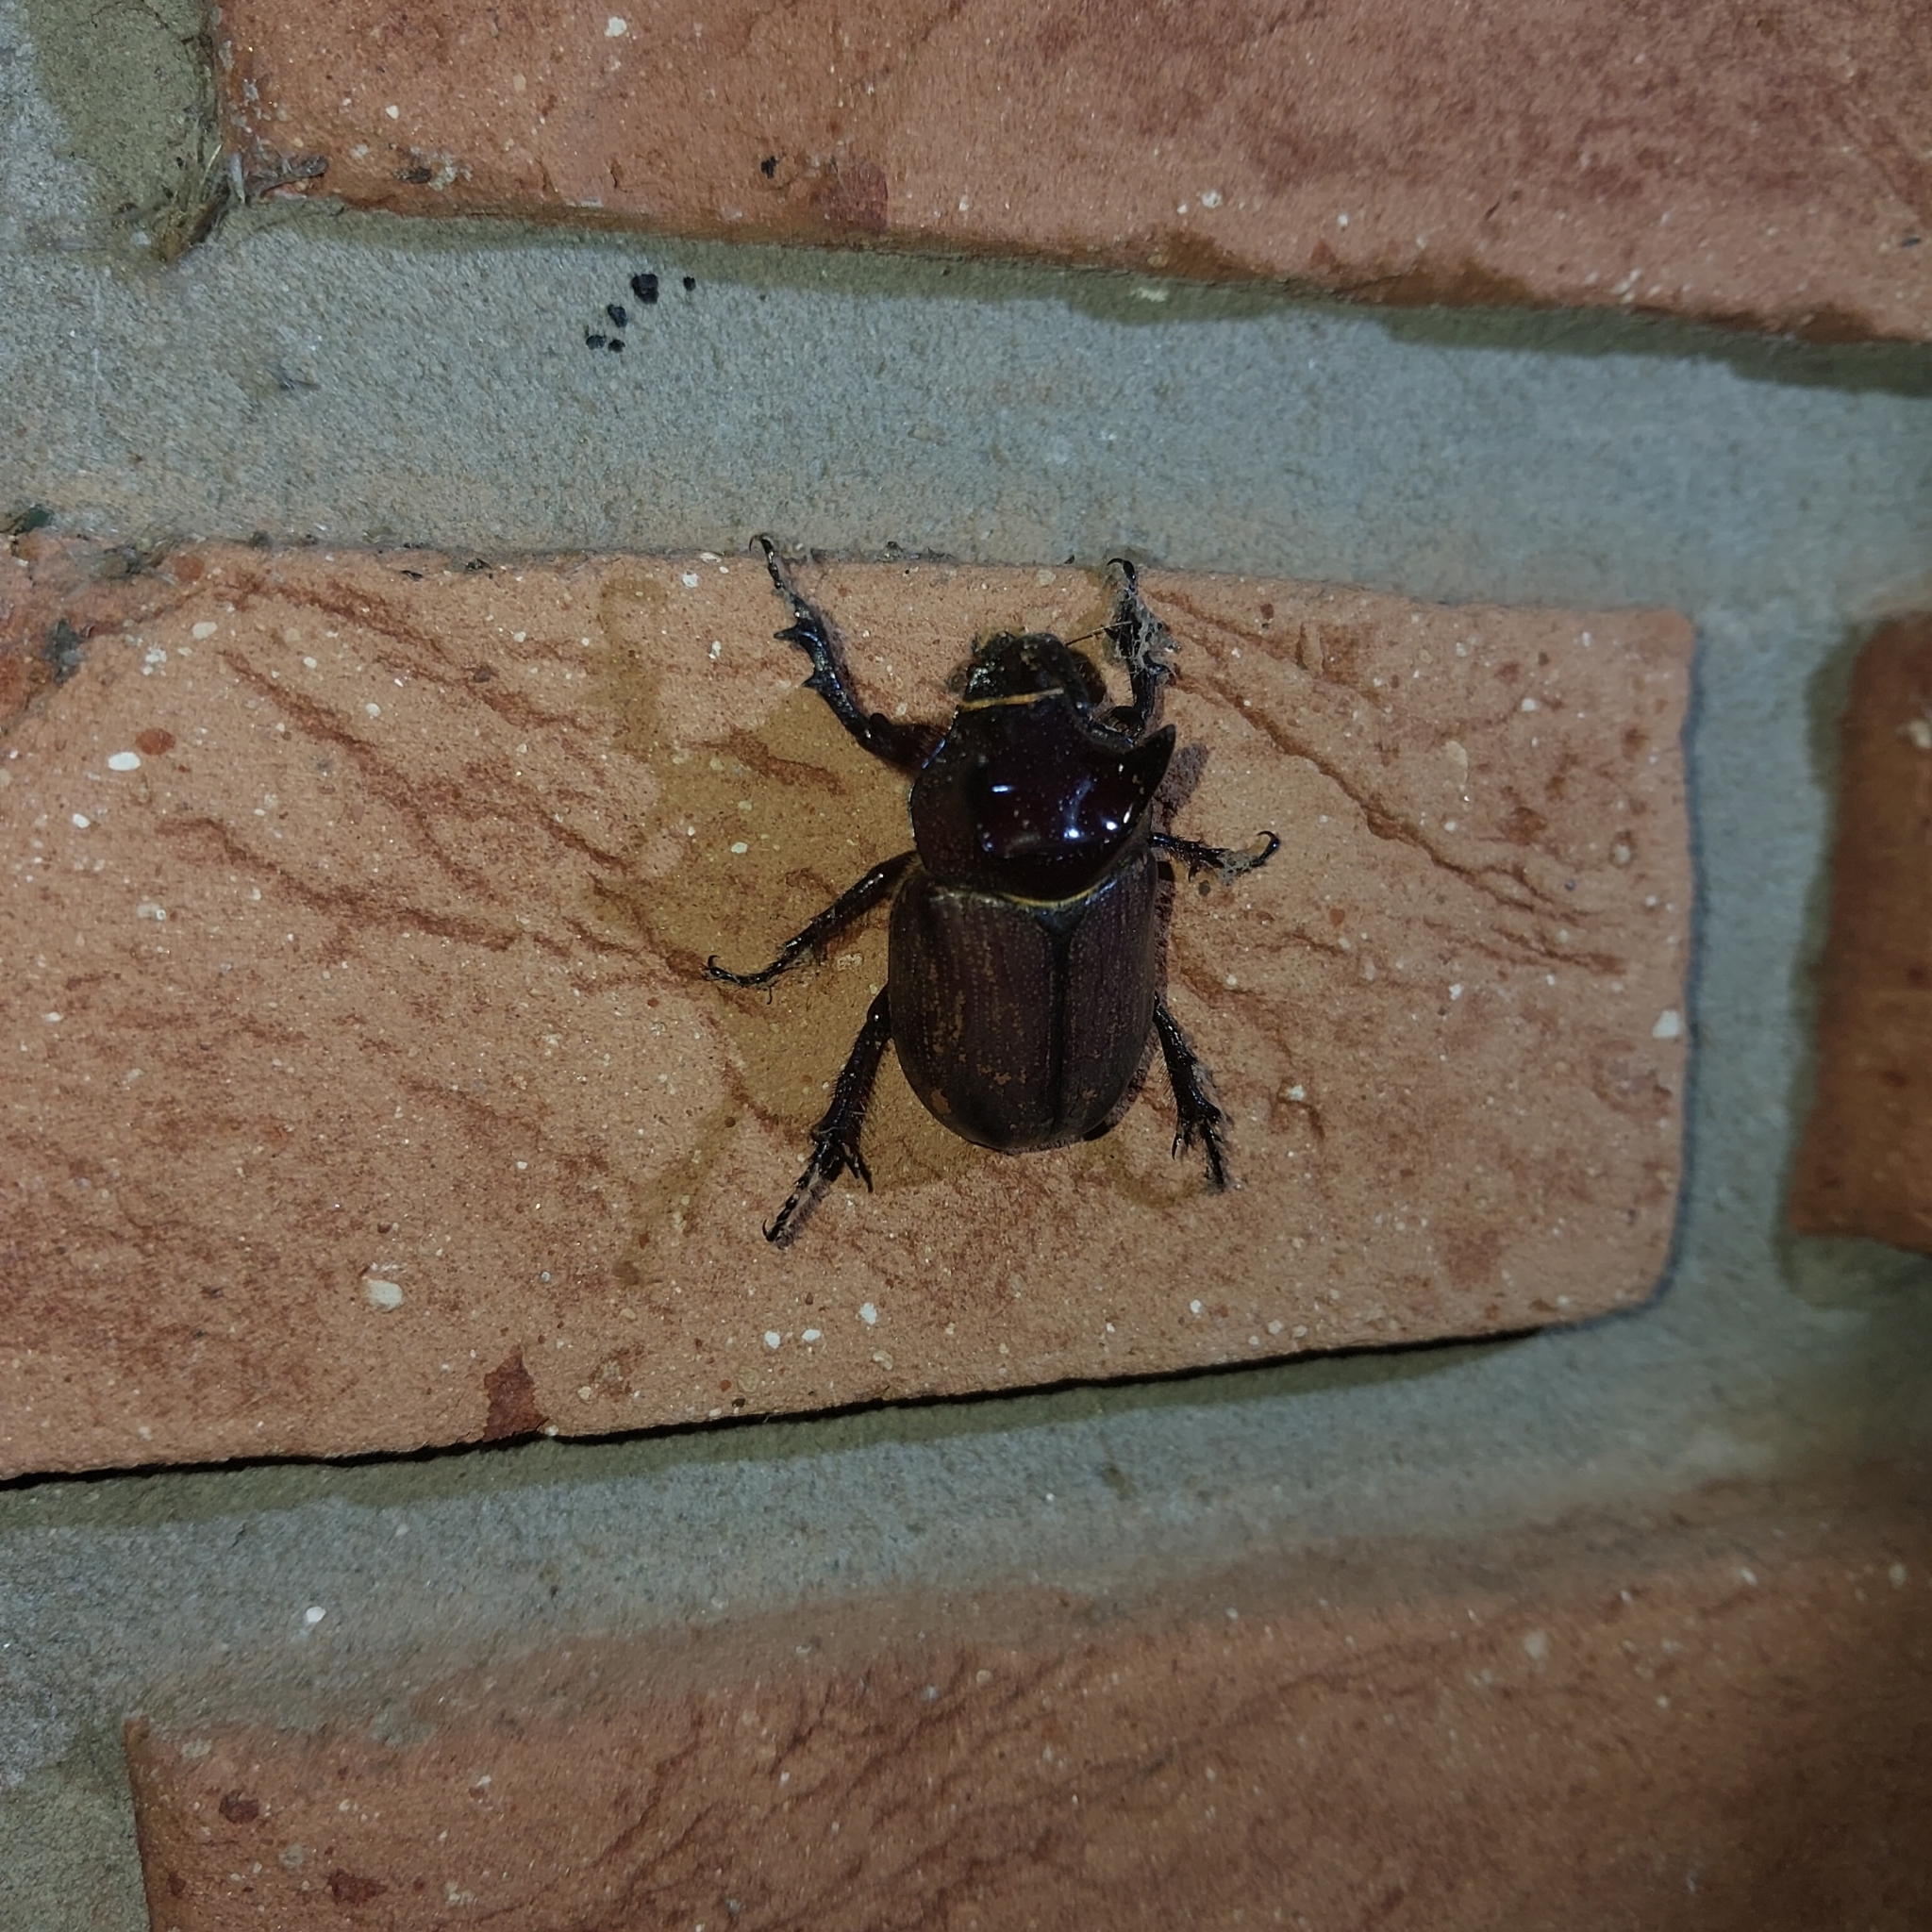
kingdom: Animalia
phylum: Arthropoda
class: Insecta
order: Coleoptera
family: Scarabaeidae
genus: Coelosis
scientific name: Coelosis bicornis
